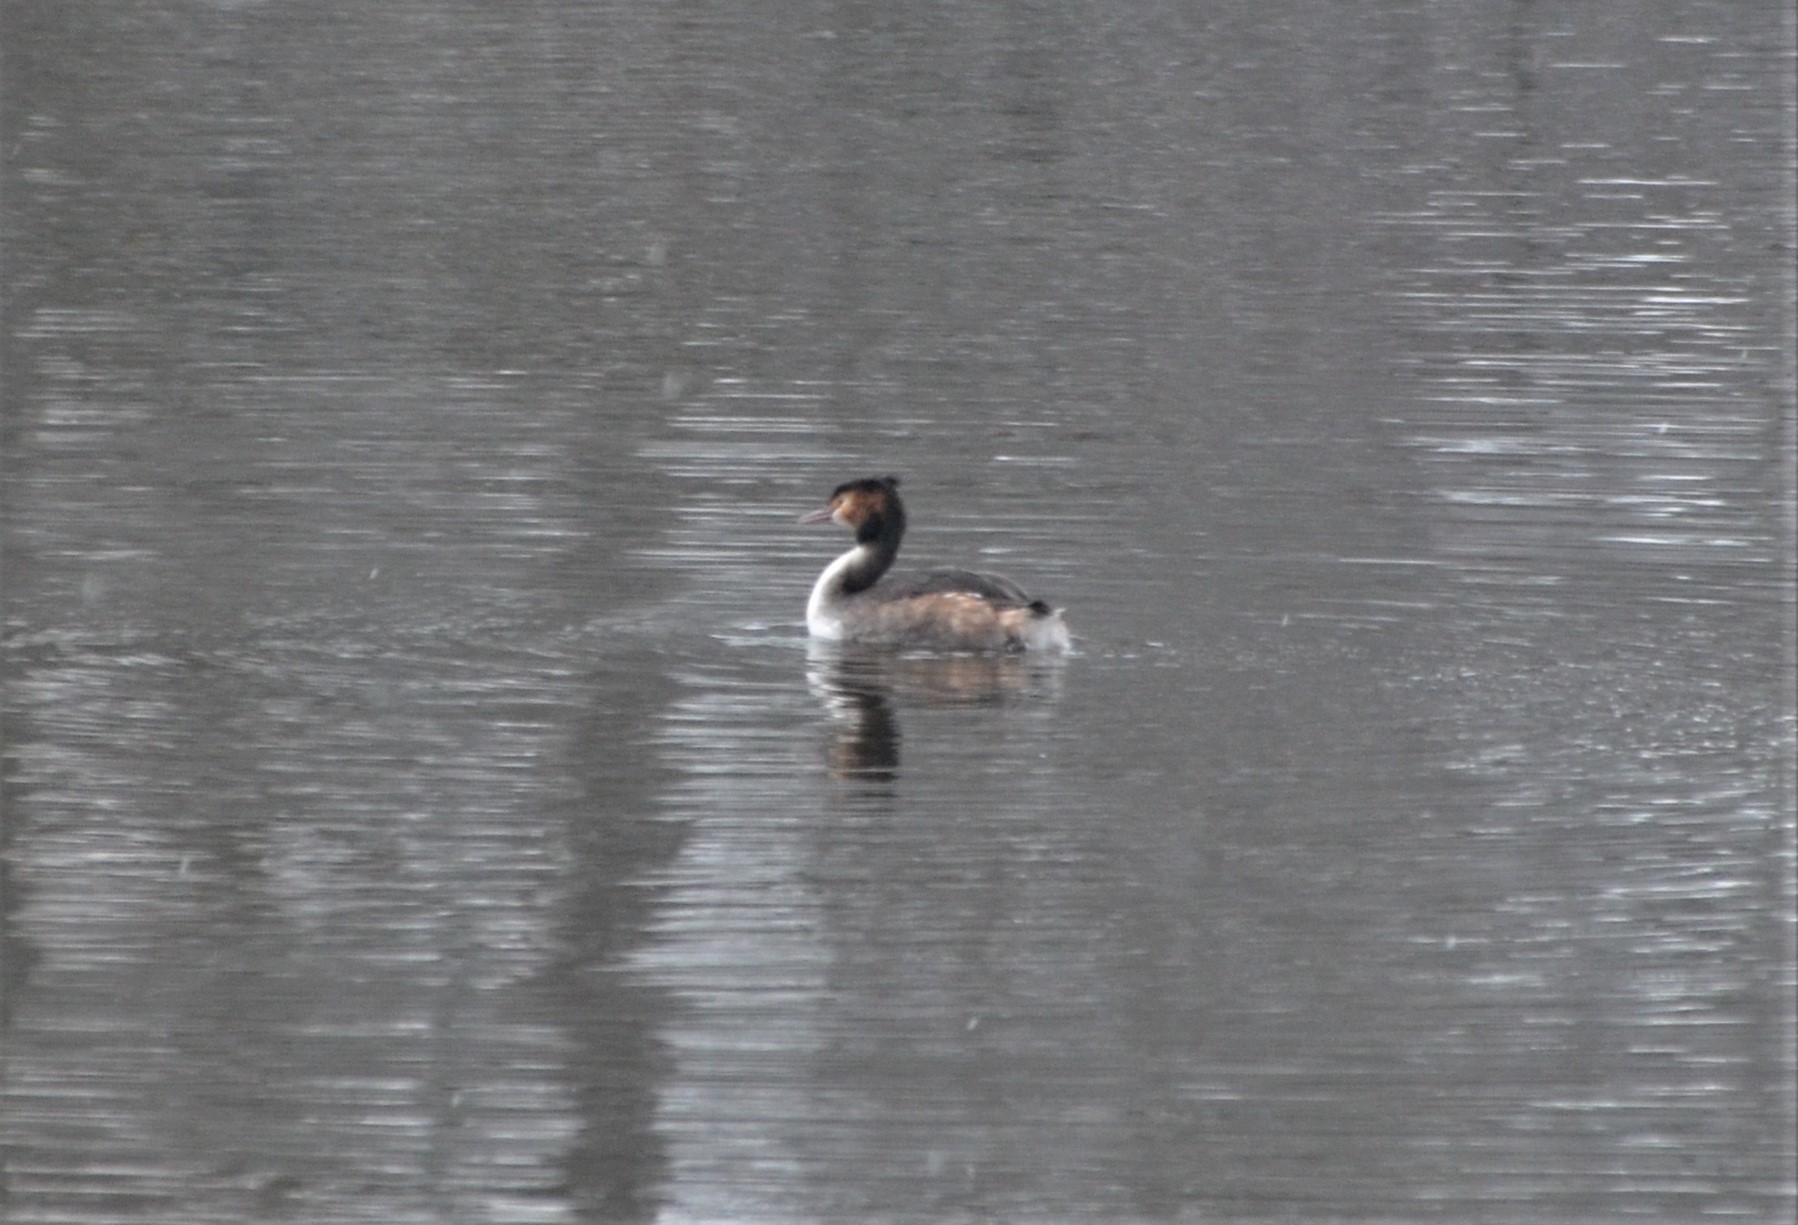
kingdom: Animalia
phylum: Chordata
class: Aves
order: Podicipediformes
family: Podicipedidae
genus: Podiceps
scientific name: Podiceps cristatus
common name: Great crested grebe
